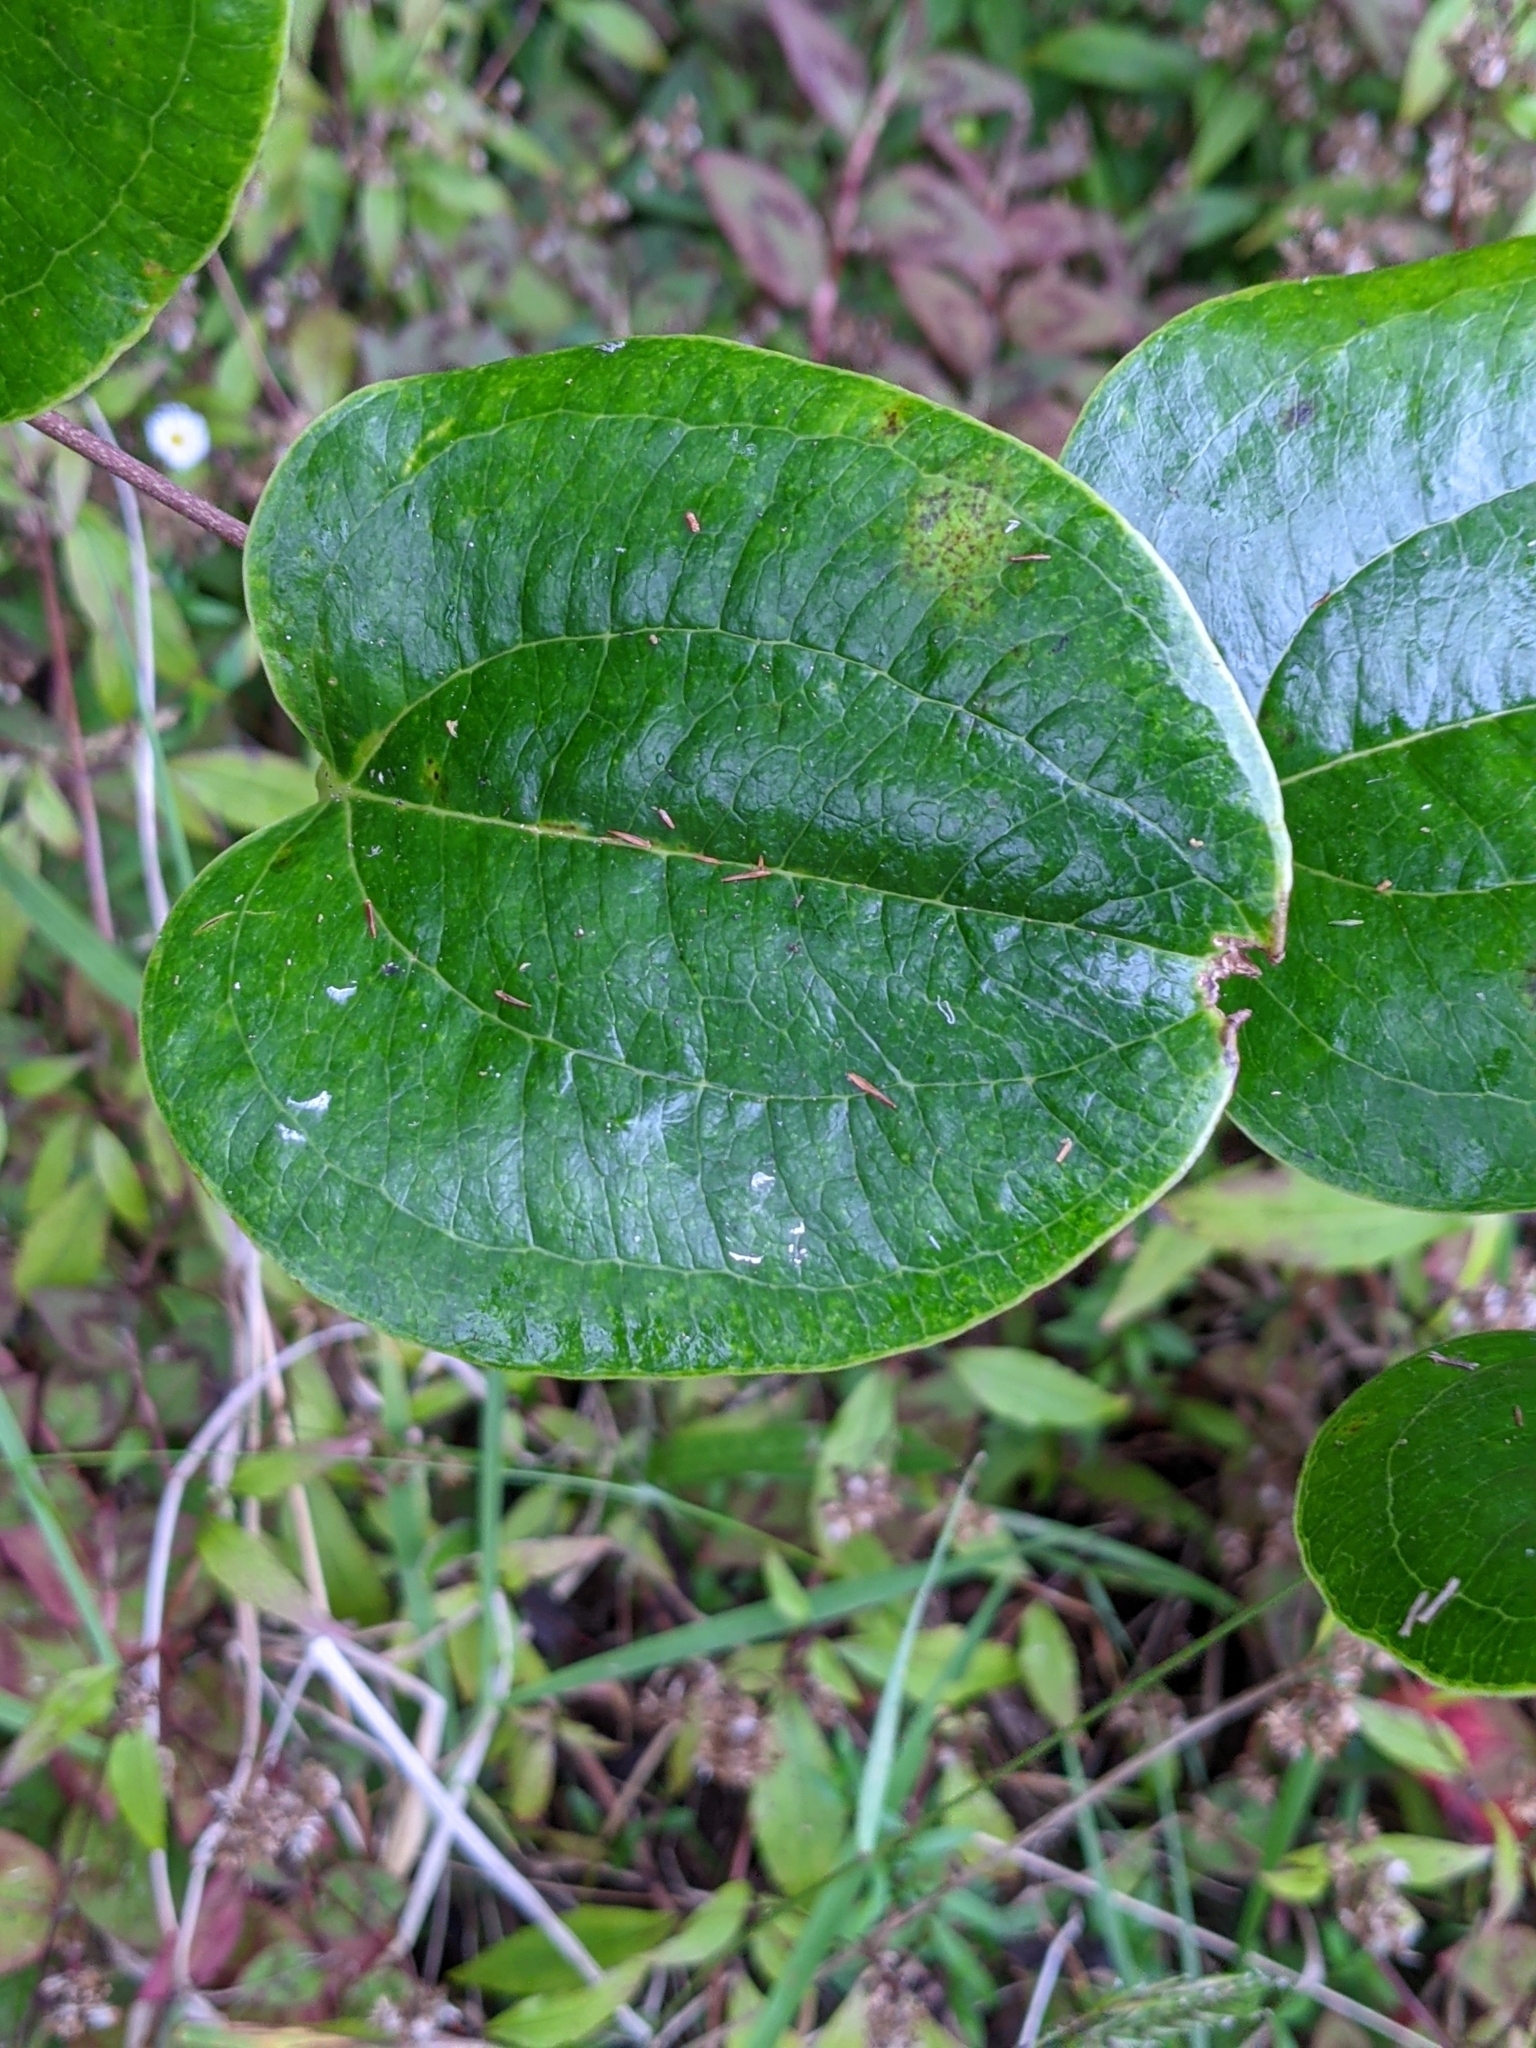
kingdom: Plantae
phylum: Tracheophyta
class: Liliopsida
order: Liliales
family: Smilacaceae
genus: Smilax
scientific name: Smilax anceps
